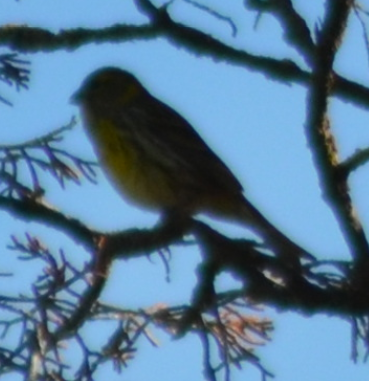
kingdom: Animalia
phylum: Chordata
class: Aves
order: Passeriformes
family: Fringillidae
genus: Serinus
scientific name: Serinus serinus
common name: European serin
